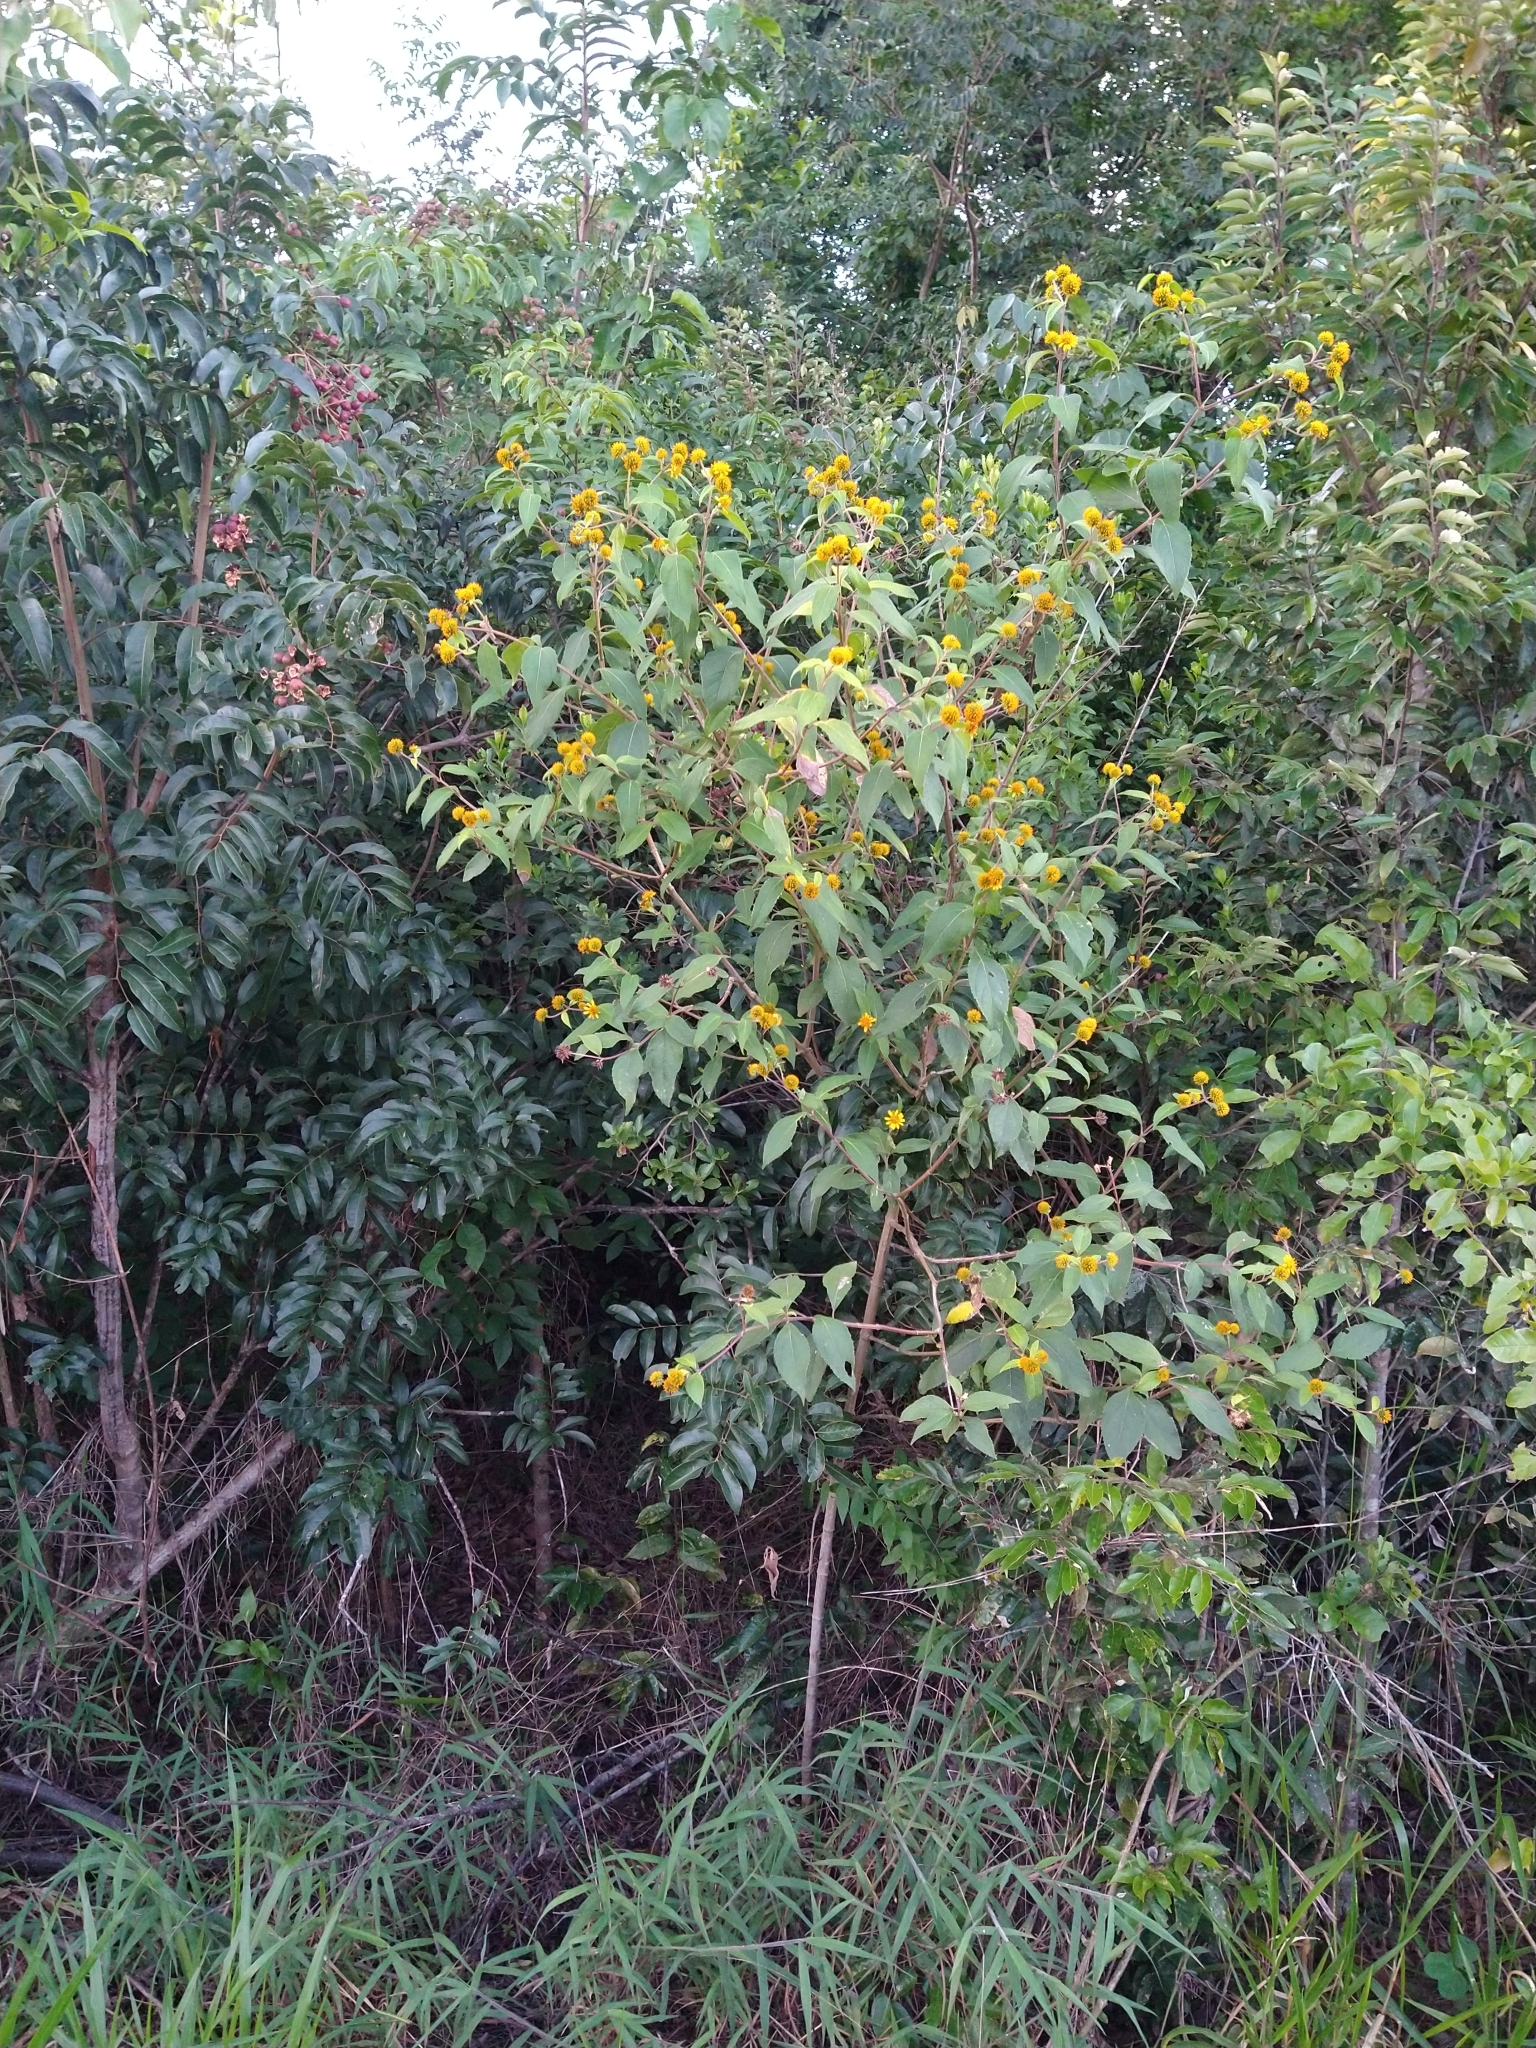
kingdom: Plantae
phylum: Tracheophyta
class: Magnoliopsida
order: Asterales
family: Asteraceae
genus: Tilesia
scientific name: Tilesia baccata
